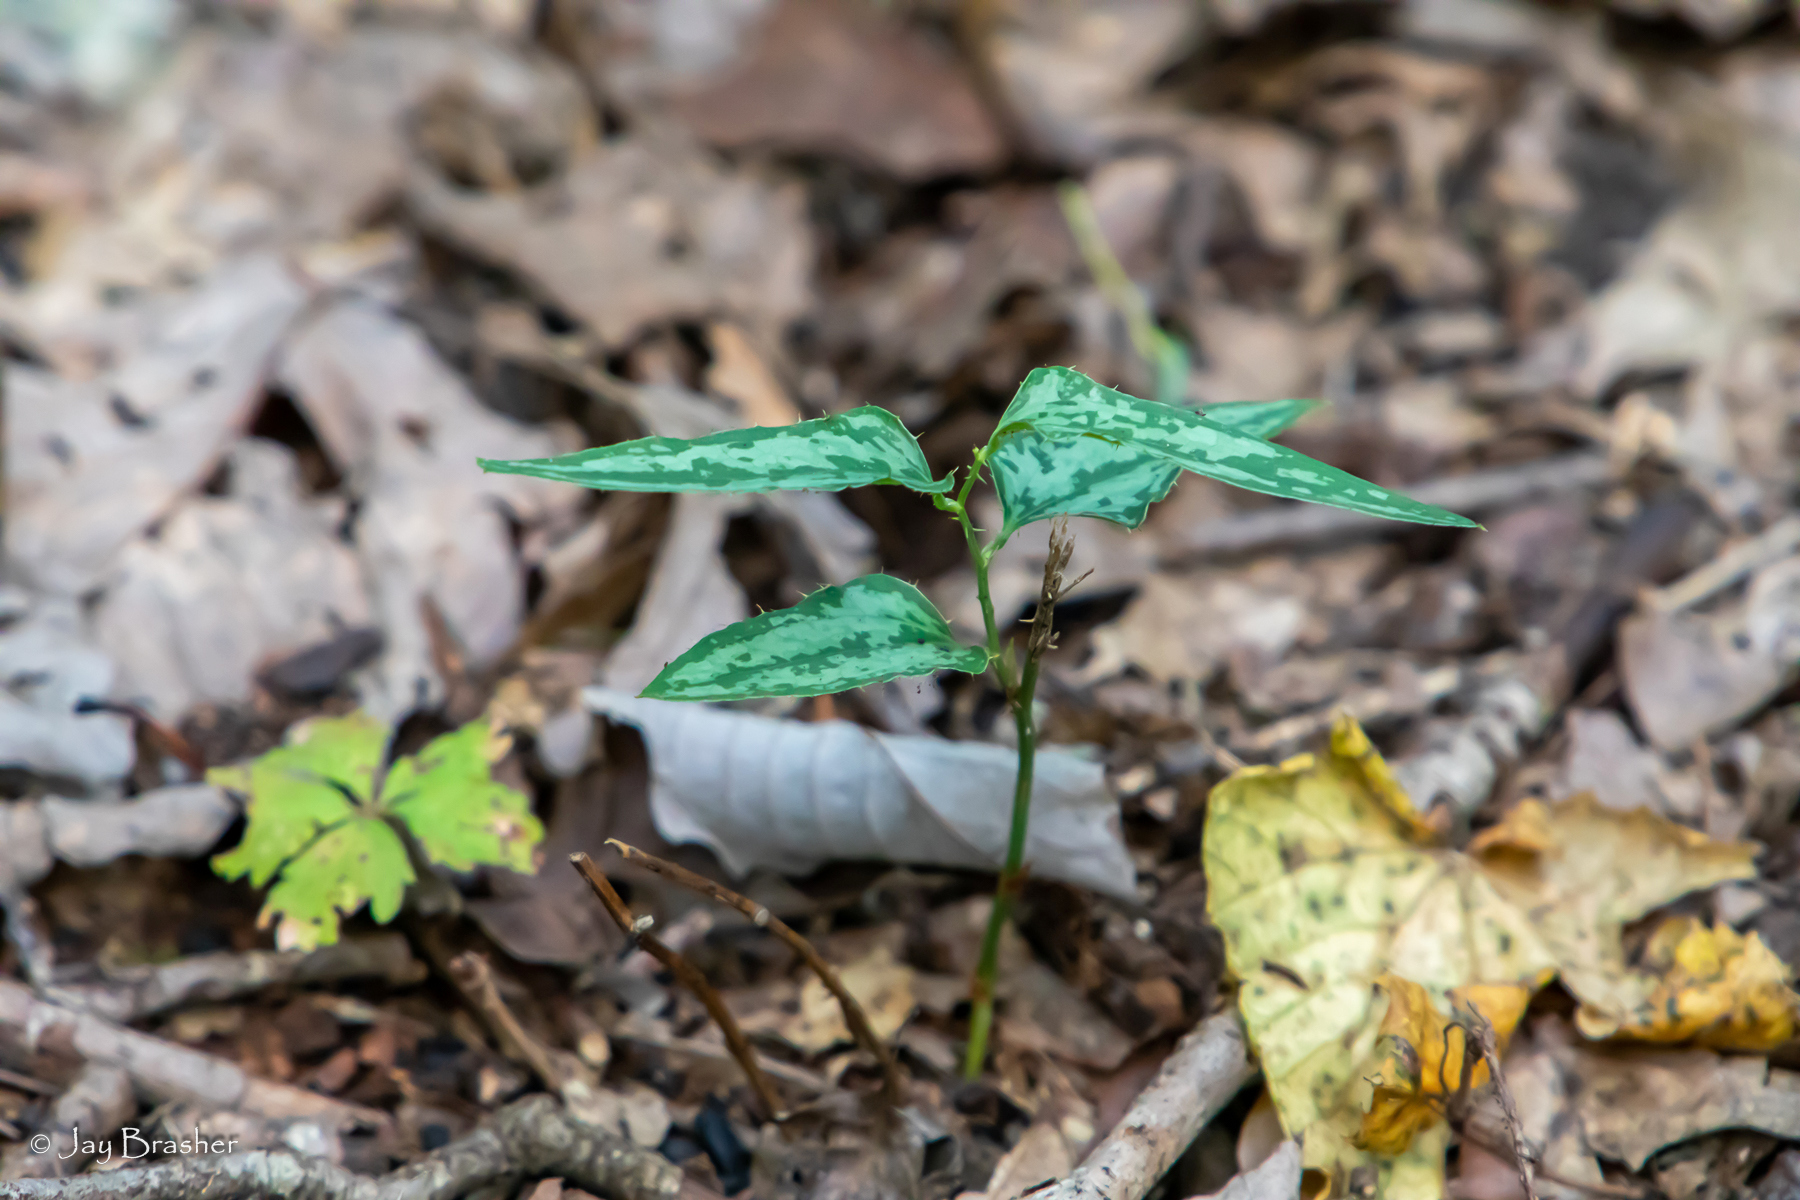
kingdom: Plantae
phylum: Tracheophyta
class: Liliopsida
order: Liliales
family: Smilacaceae
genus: Smilax
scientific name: Smilax bona-nox
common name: Catbrier
